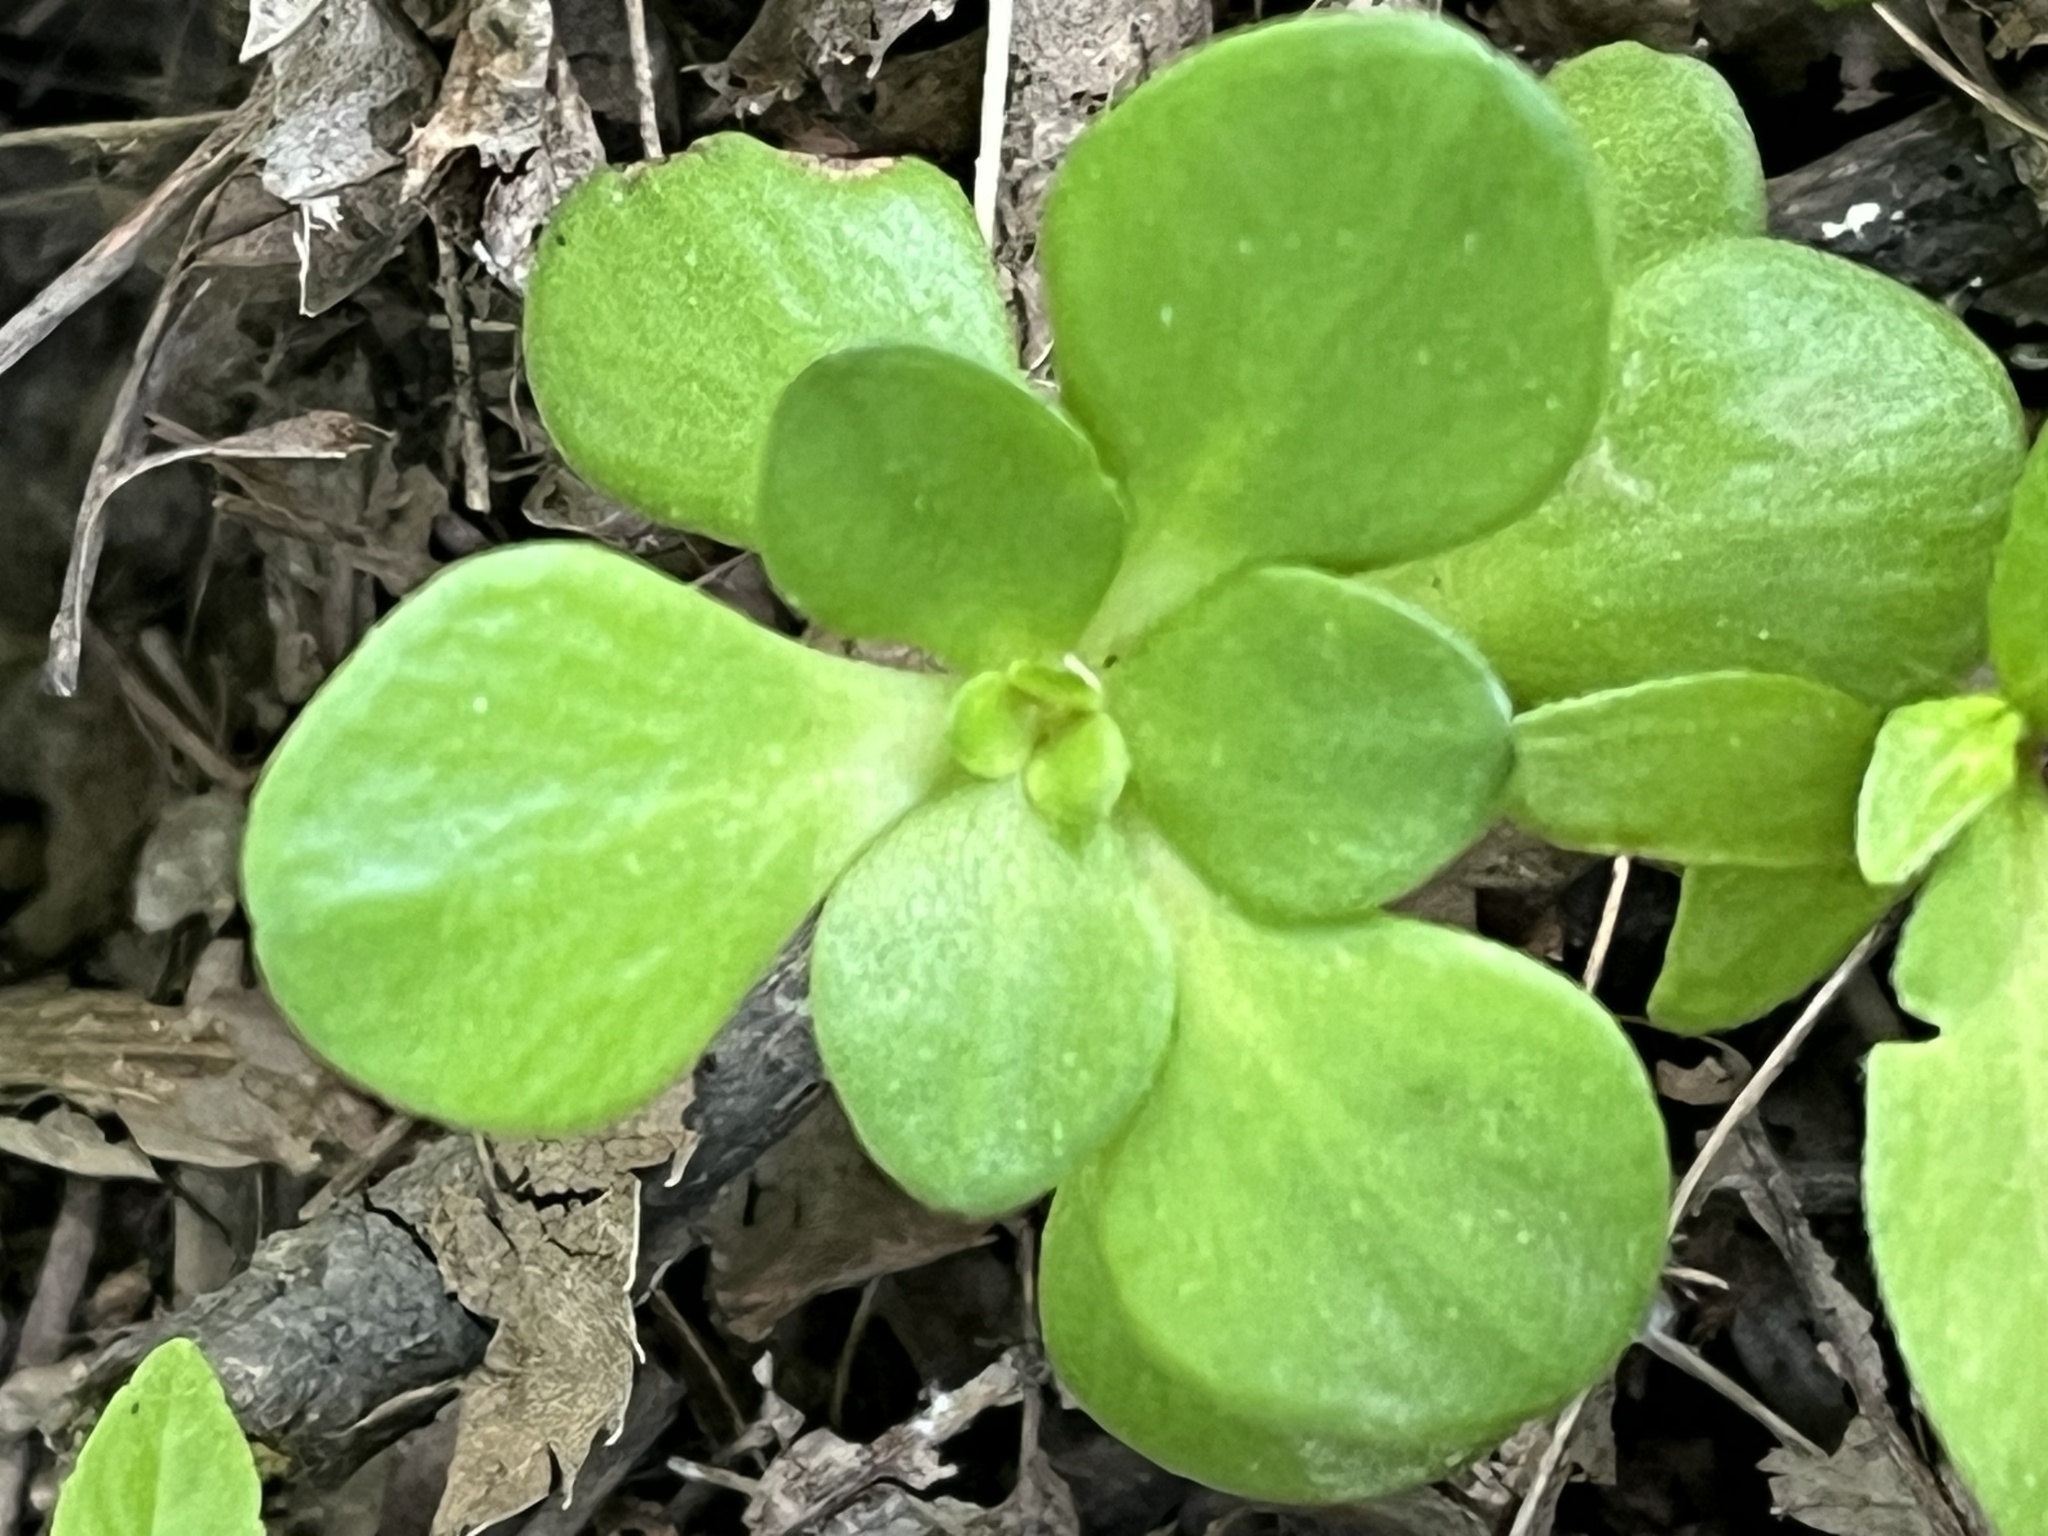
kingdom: Plantae
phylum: Tracheophyta
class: Magnoliopsida
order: Saxifragales
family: Crassulaceae
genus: Sedum
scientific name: Sedum ternatum
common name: Wild stonecrop
